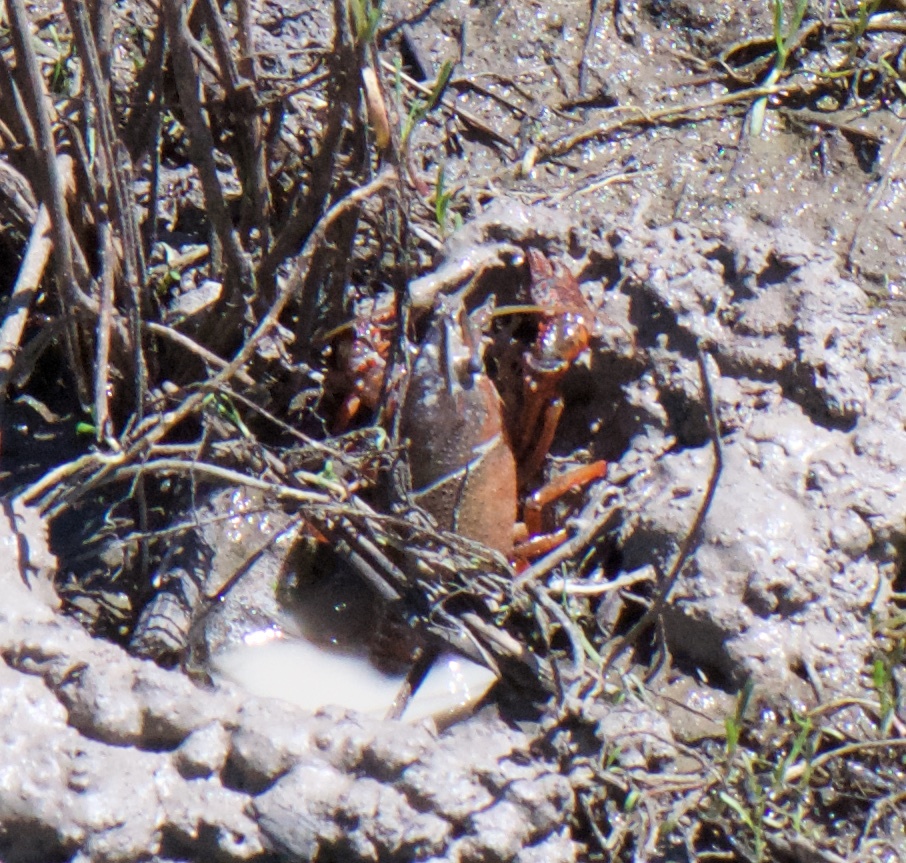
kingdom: Animalia
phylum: Arthropoda
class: Malacostraca
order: Decapoda
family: Cambaridae
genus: Procambarus
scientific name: Procambarus clarkii
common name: Red swamp crayfish
